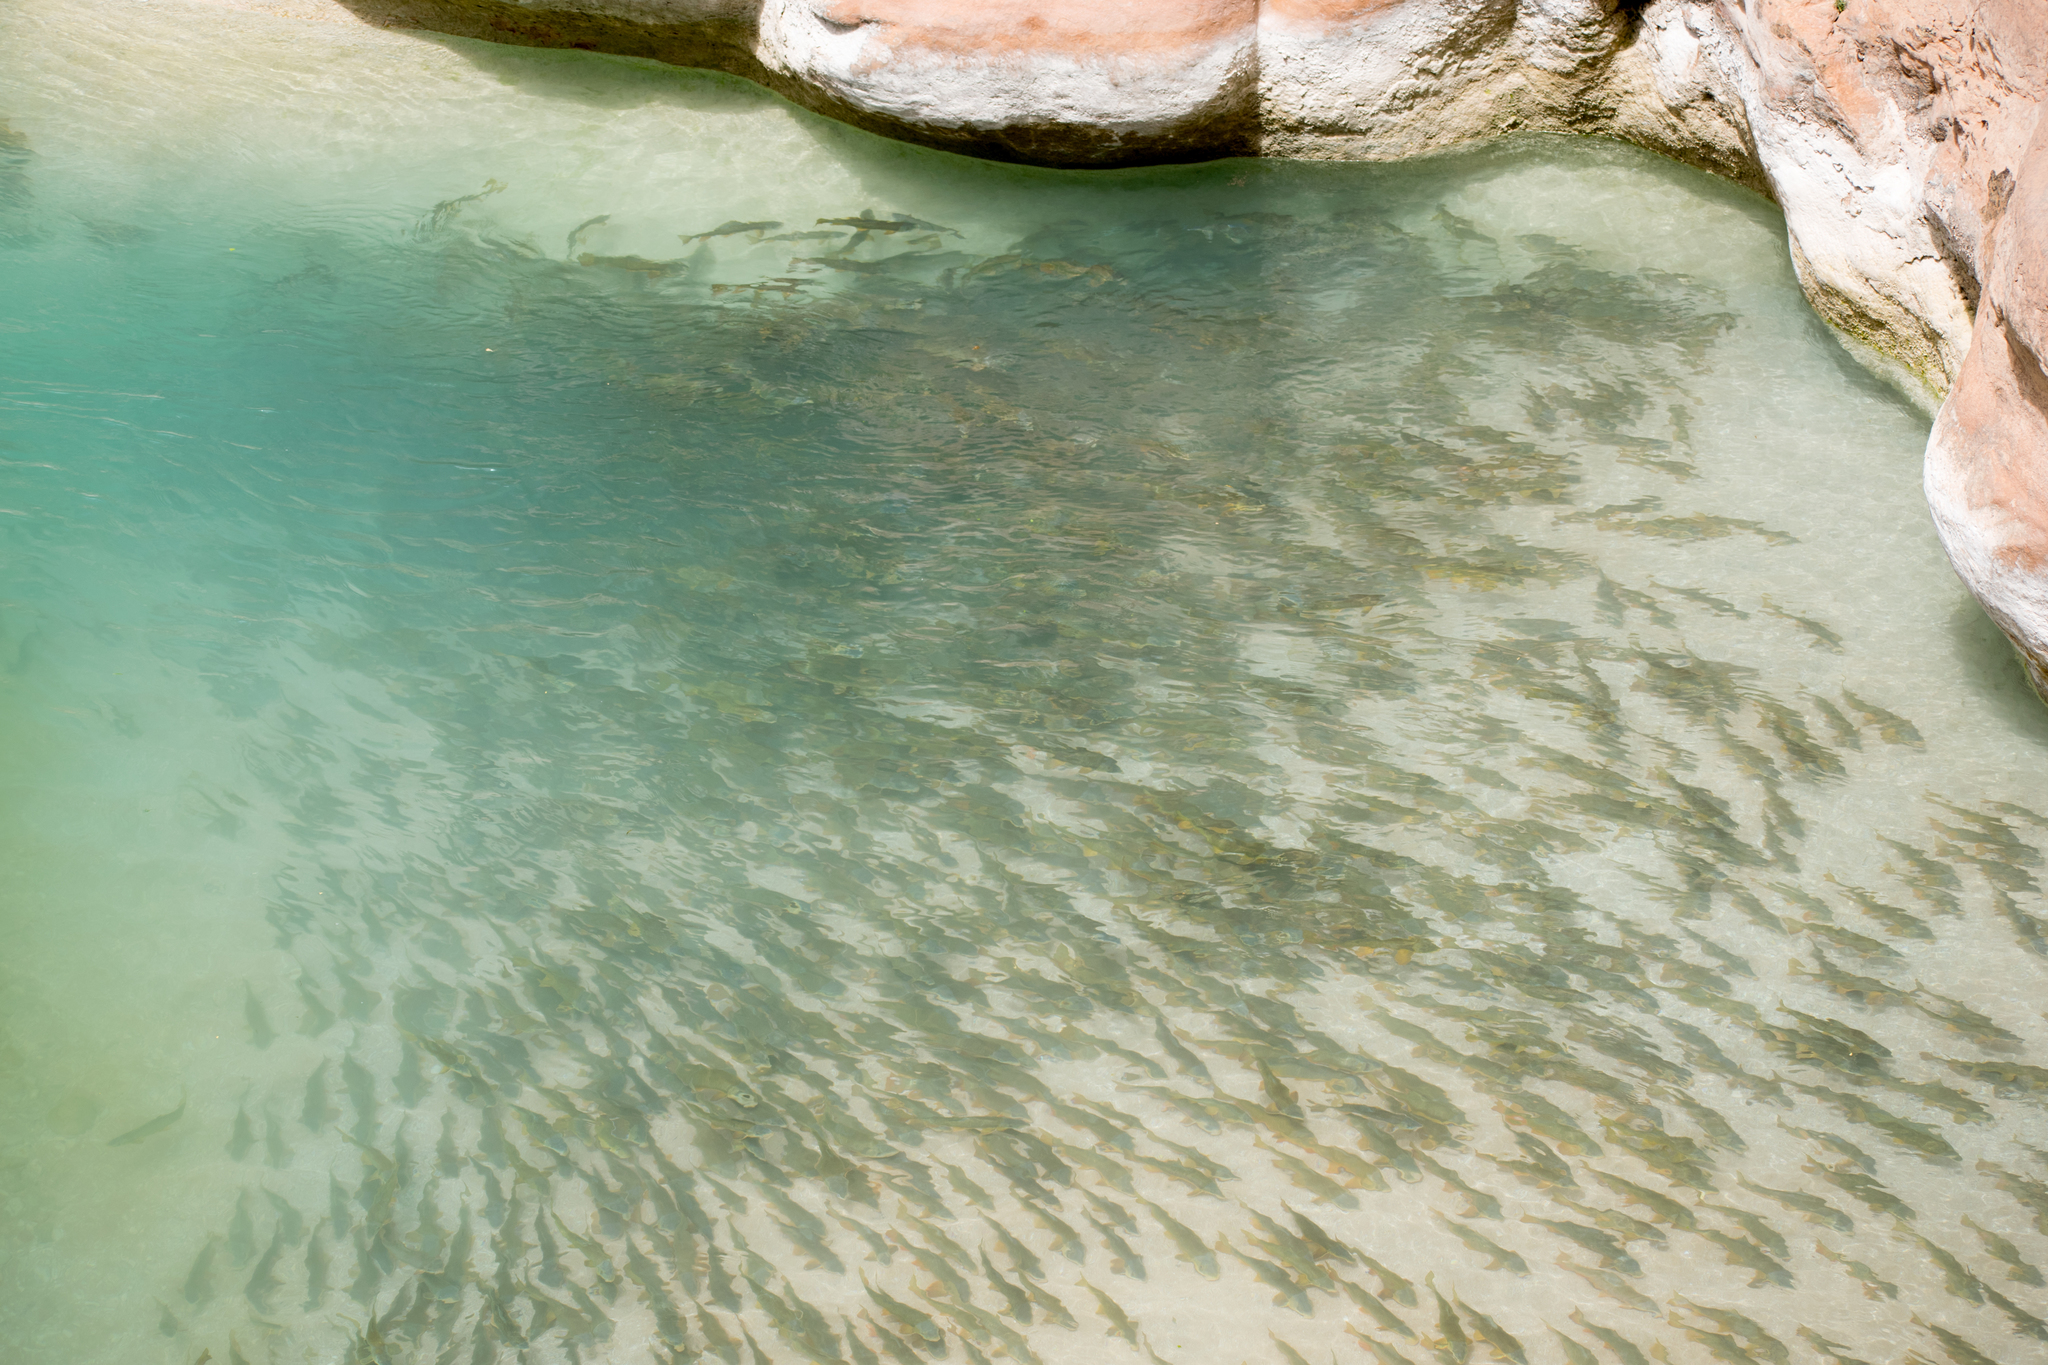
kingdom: Animalia
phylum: Chordata
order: Cypriniformes
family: Catostomidae
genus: Catostomus
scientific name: Catostomus latipinnis
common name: Flannelmouth sucker
